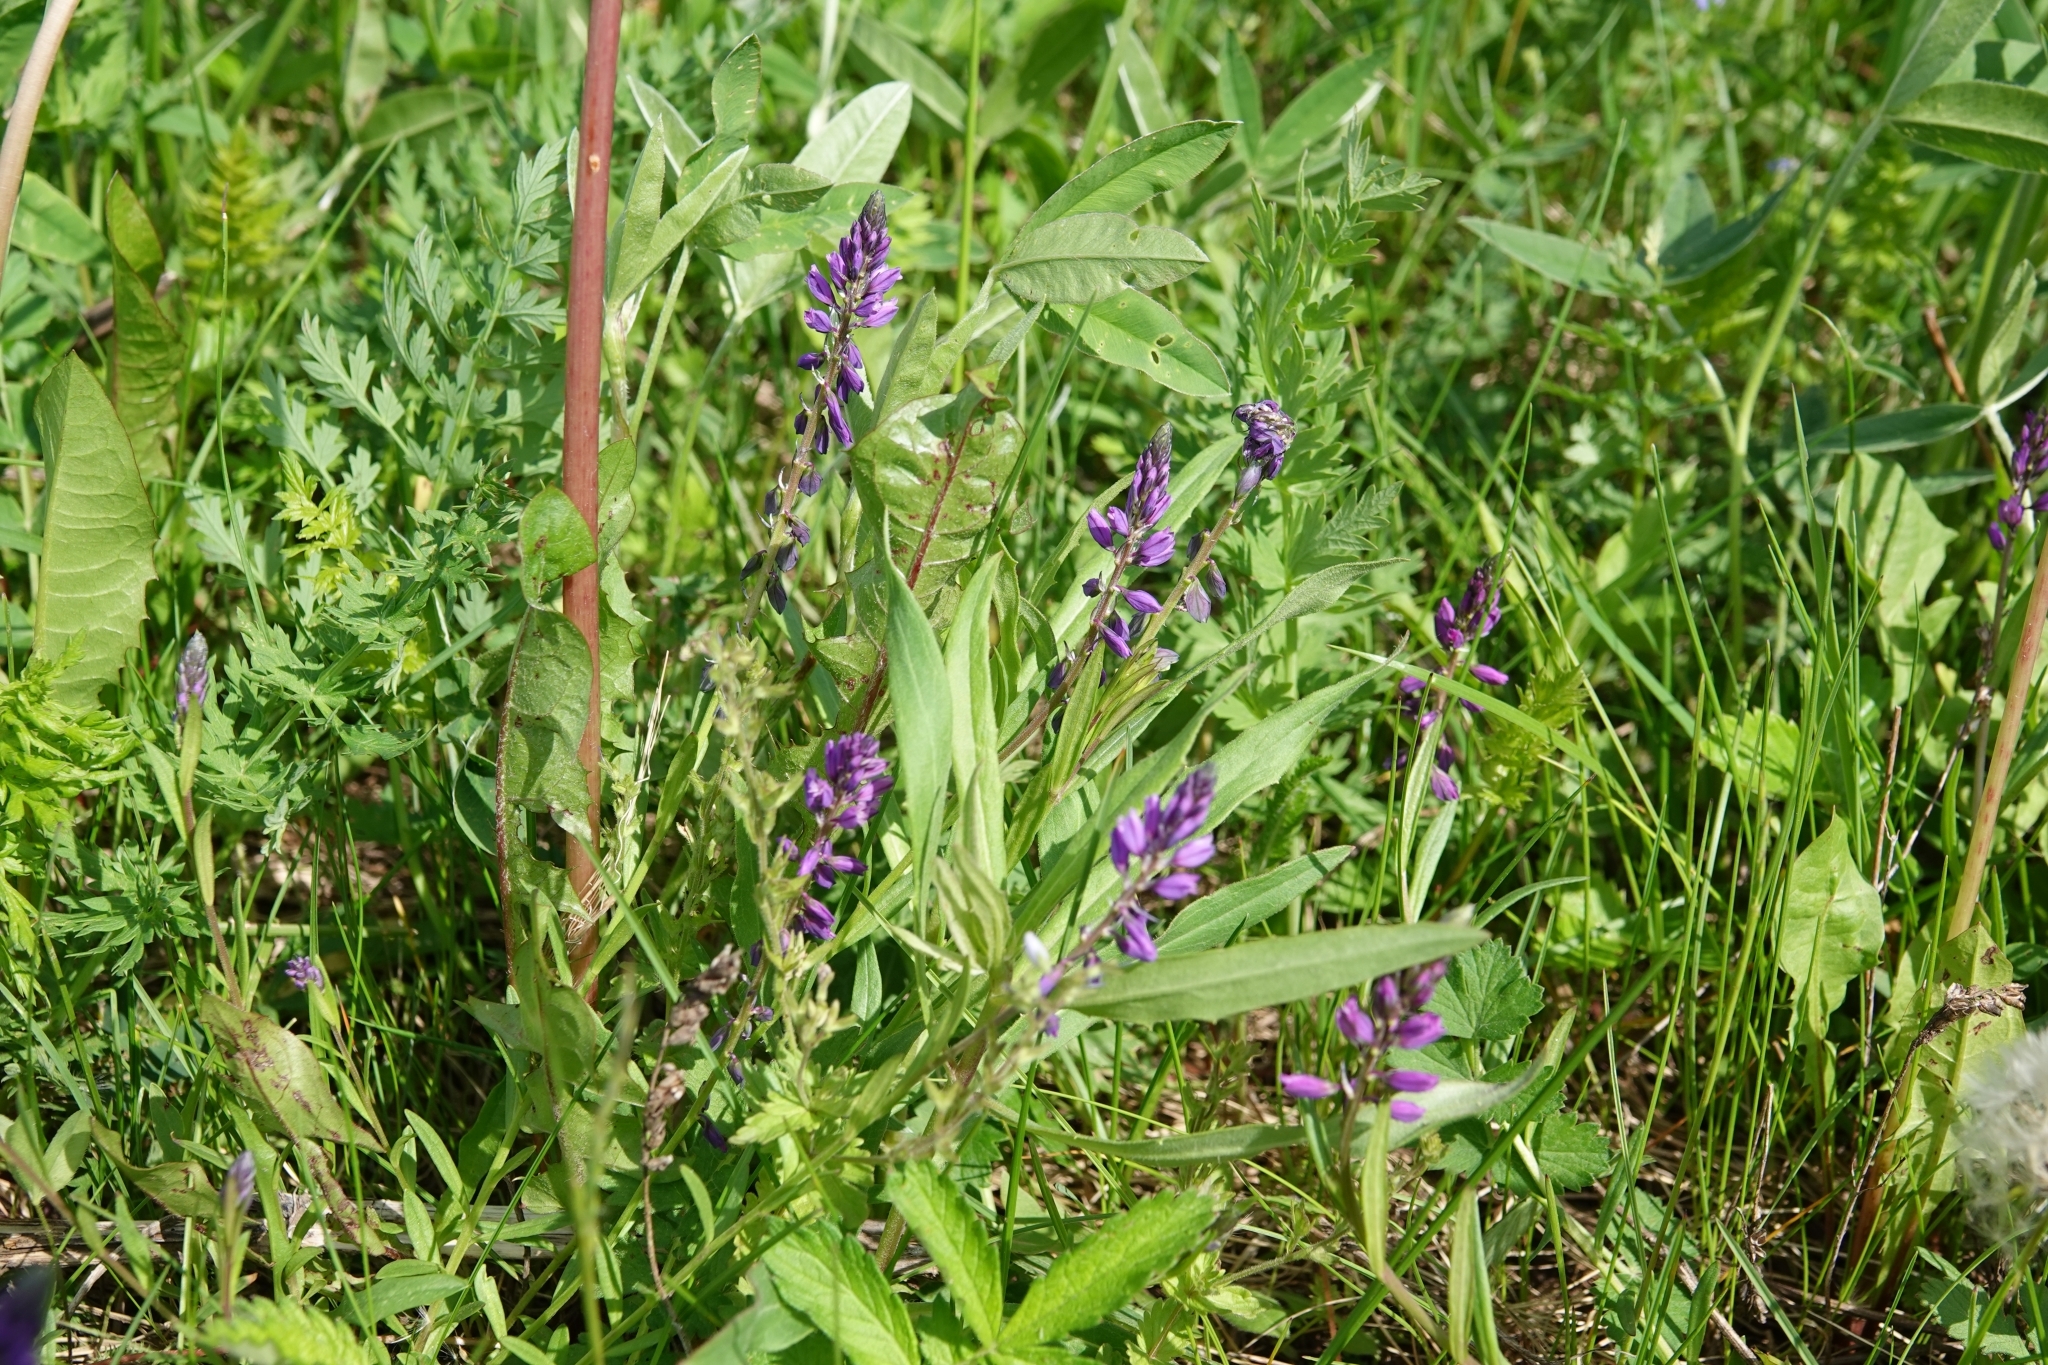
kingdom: Plantae
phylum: Tracheophyta
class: Magnoliopsida
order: Fabales
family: Polygalaceae
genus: Polygala
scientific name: Polygala comosa
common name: Tufted milkwort
